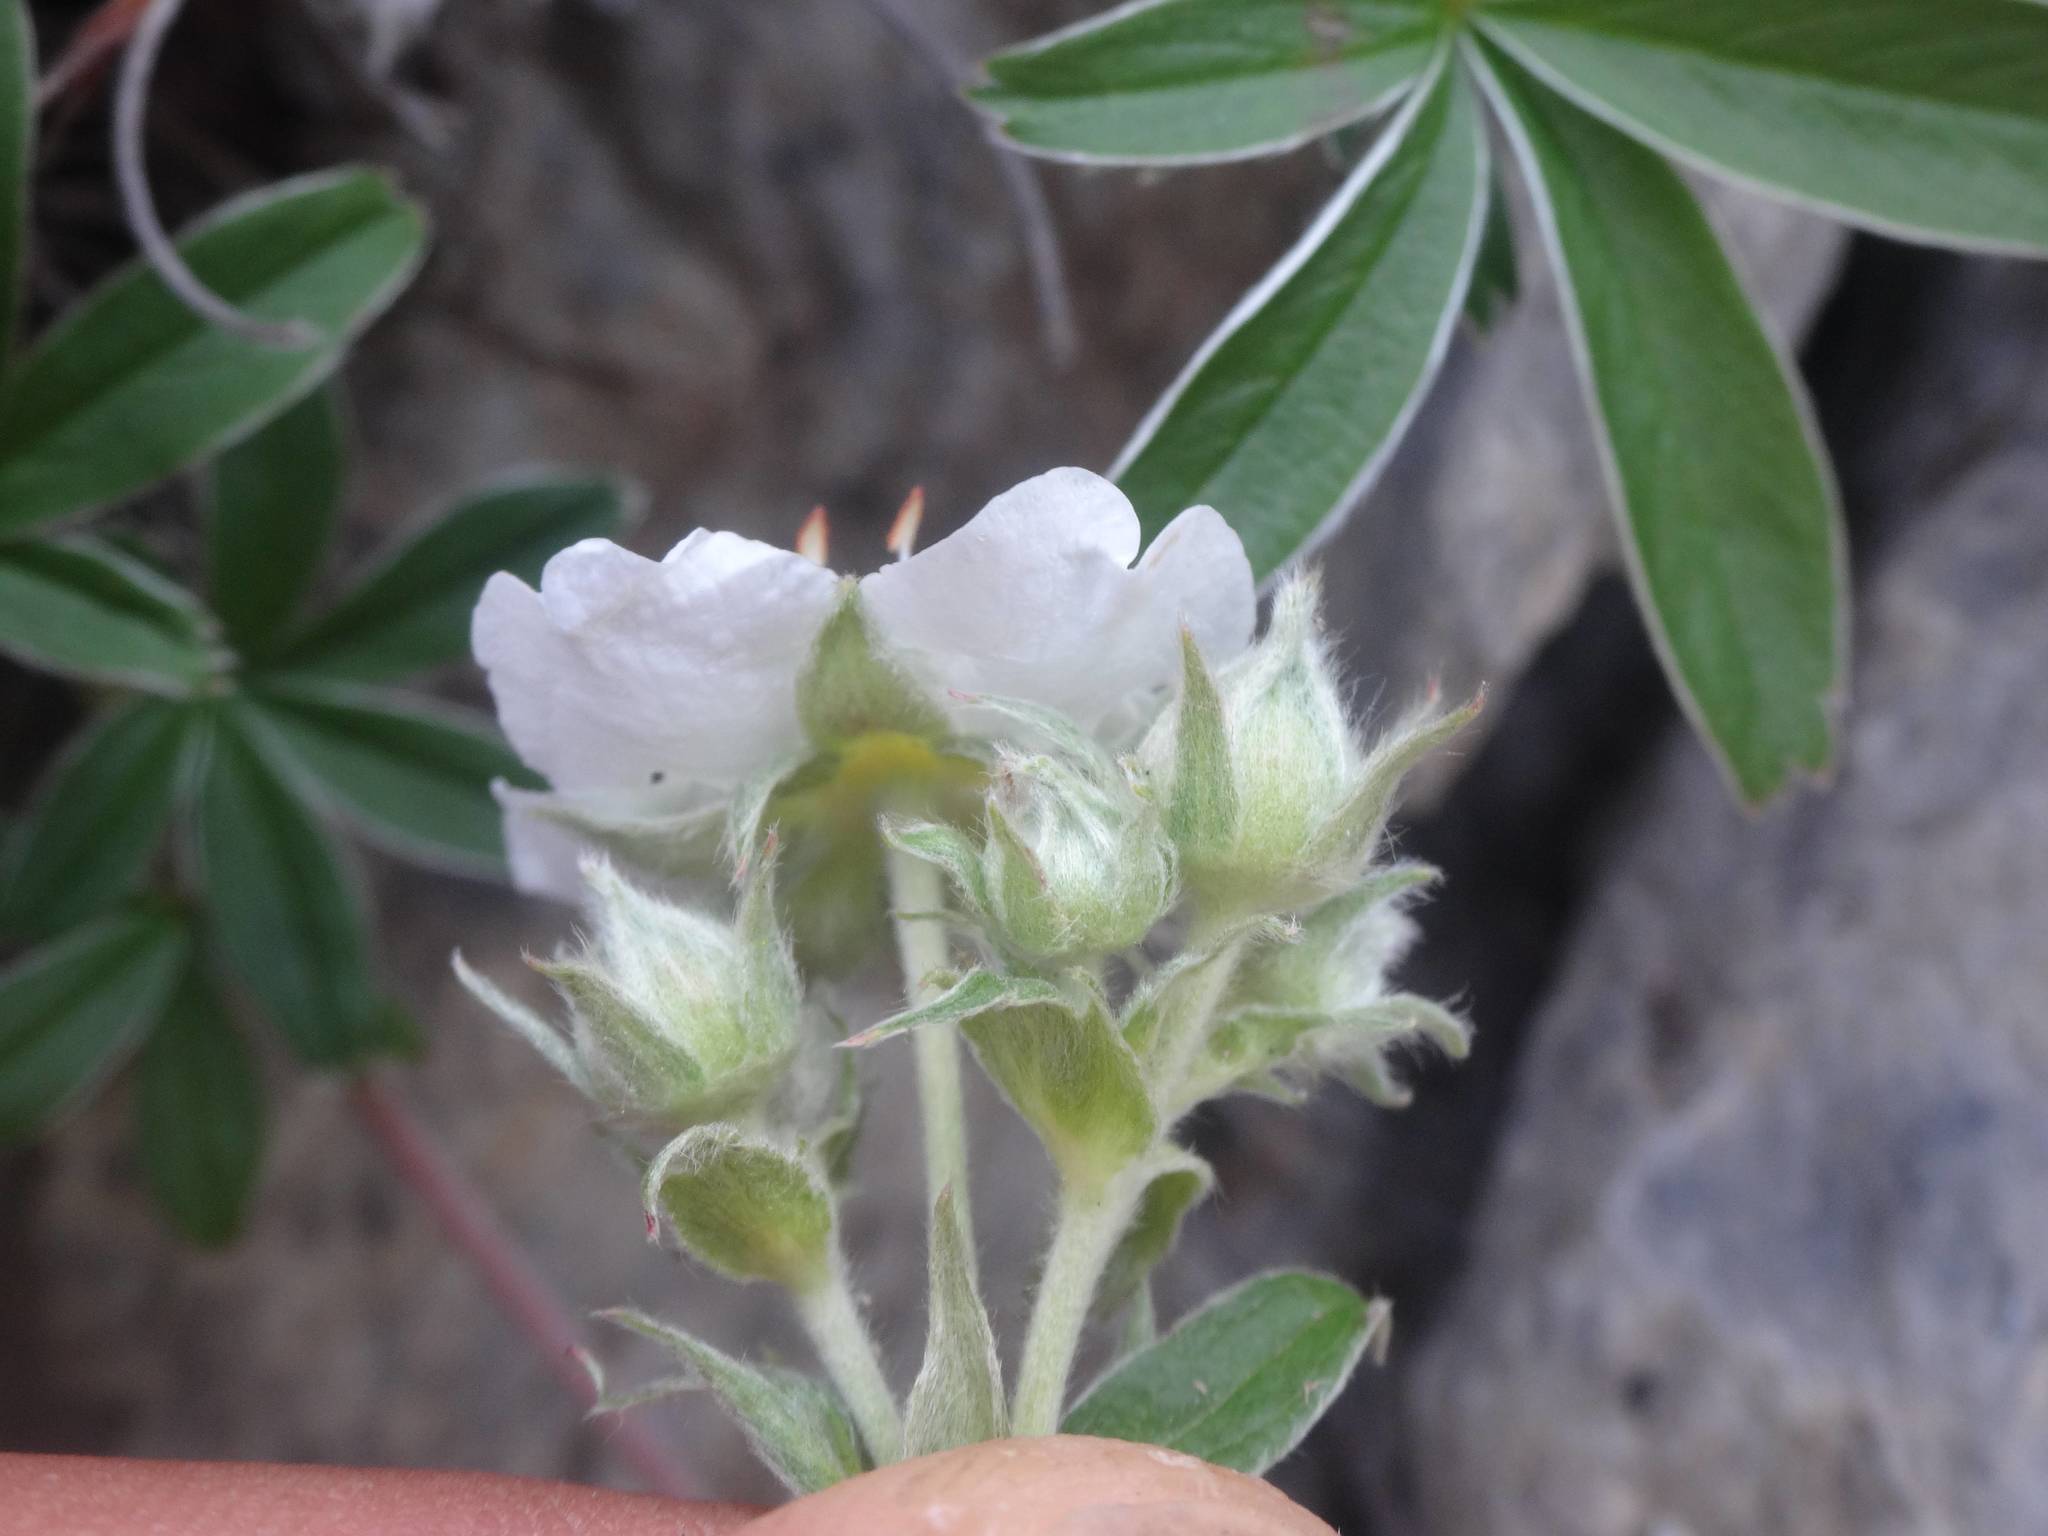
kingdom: Plantae
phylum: Tracheophyta
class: Magnoliopsida
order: Rosales
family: Rosaceae
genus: Potentilla
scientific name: Potentilla alchimilloides
